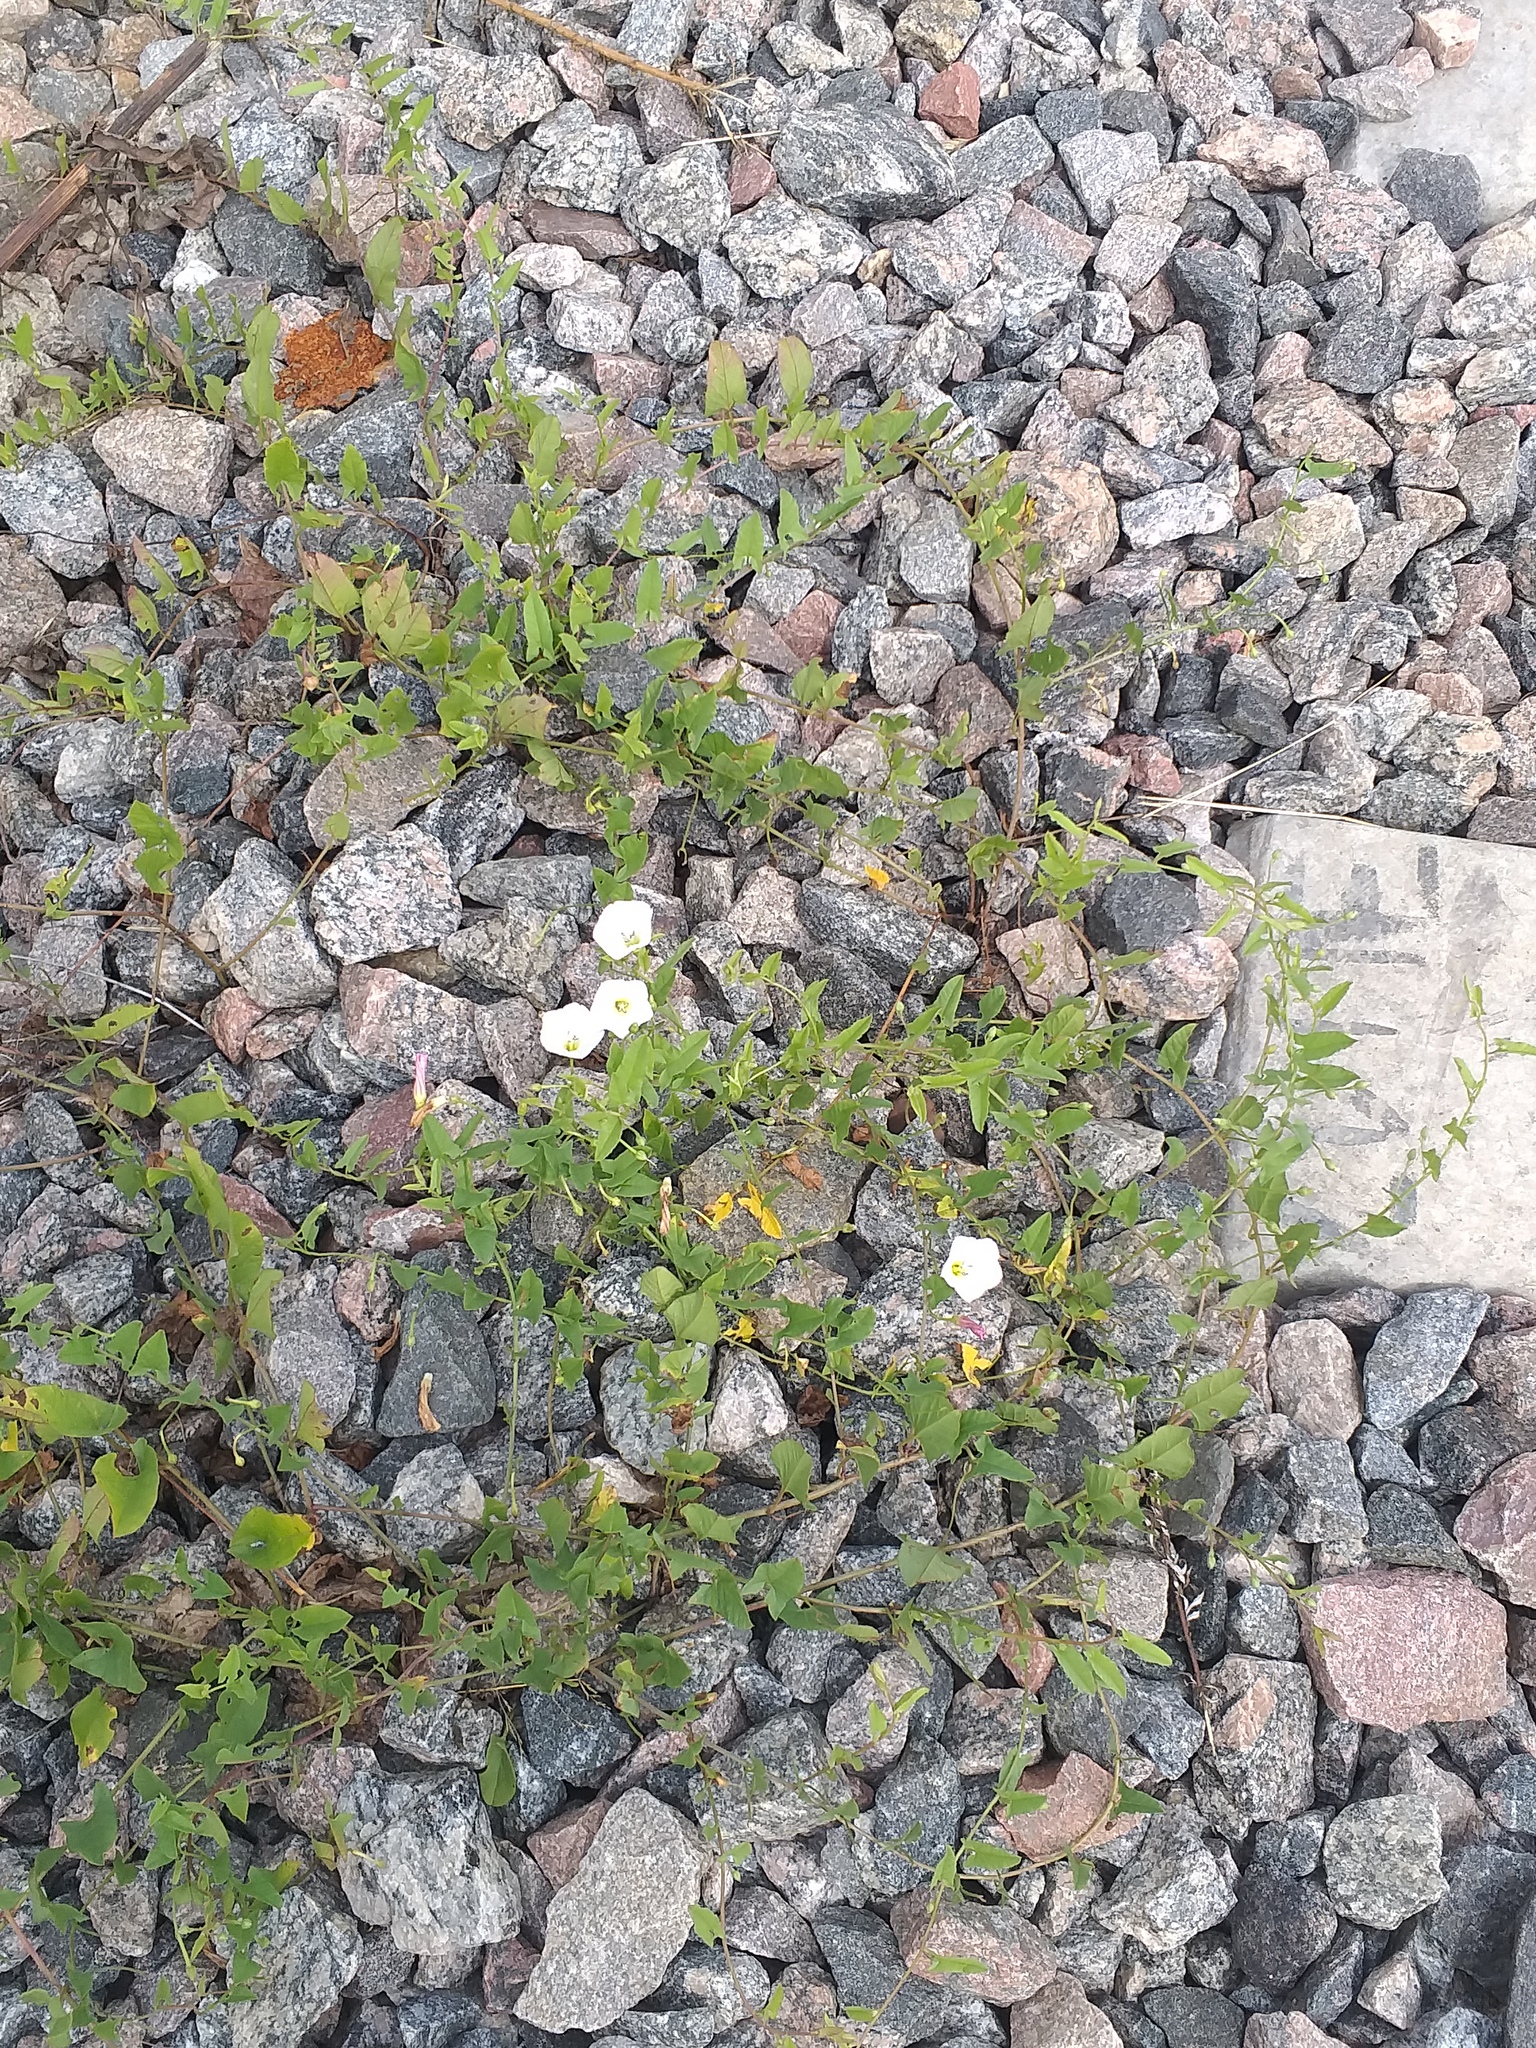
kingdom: Plantae
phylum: Tracheophyta
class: Magnoliopsida
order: Solanales
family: Convolvulaceae
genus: Convolvulus
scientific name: Convolvulus arvensis
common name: Field bindweed
